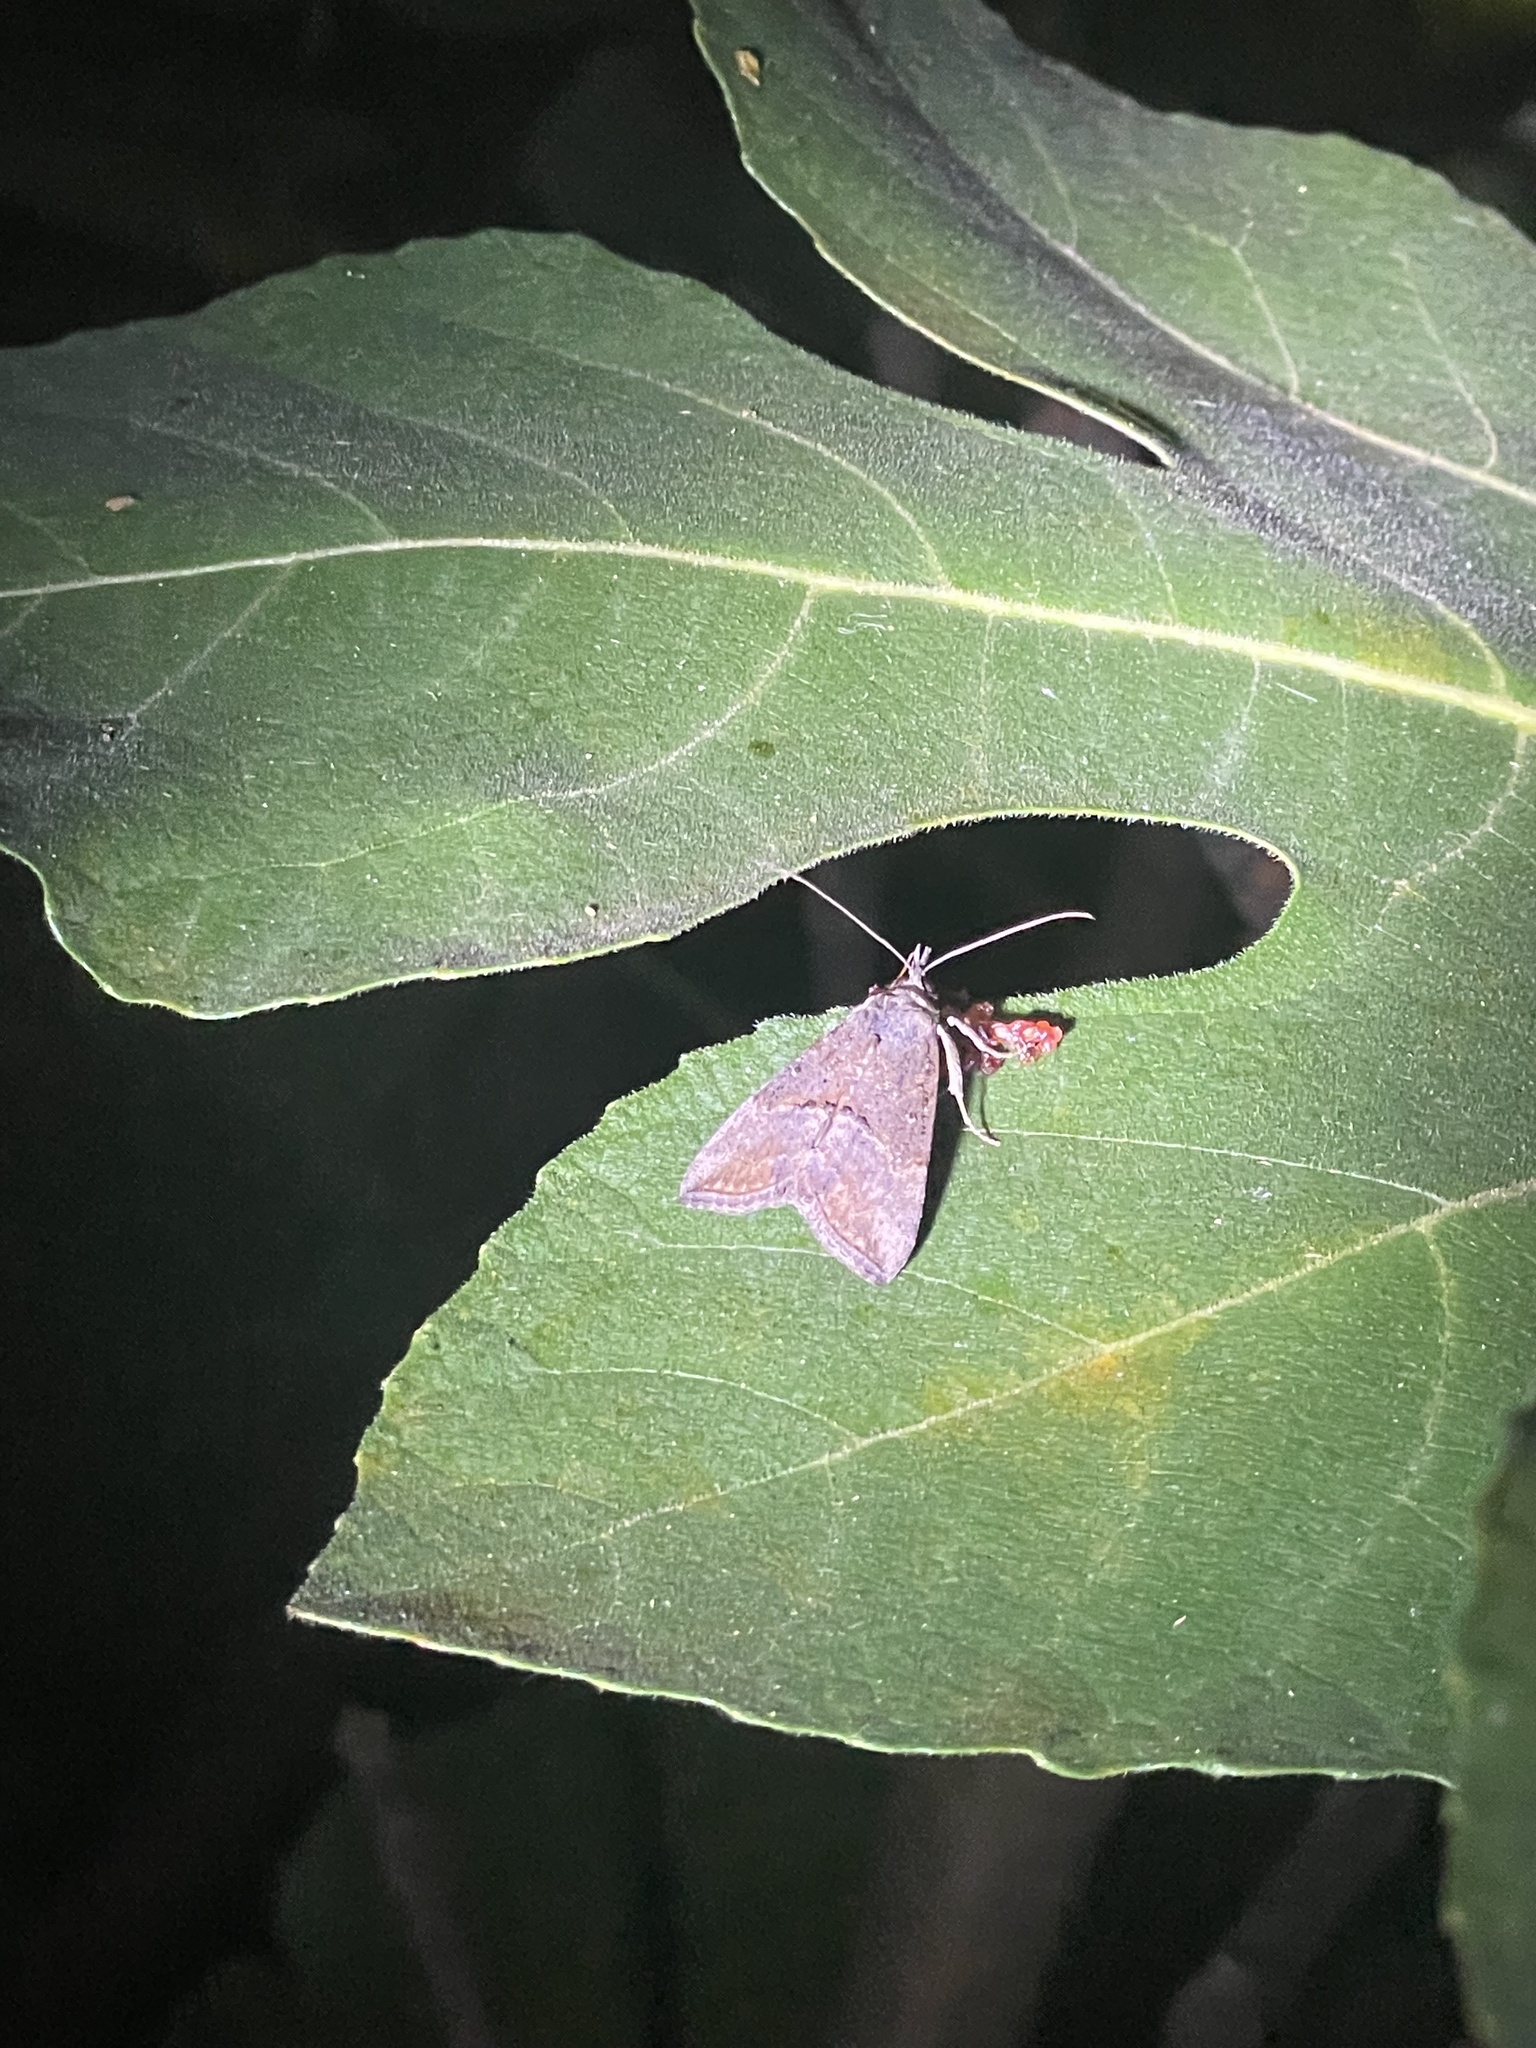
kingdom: Animalia
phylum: Arthropoda
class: Insecta
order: Lepidoptera
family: Erebidae
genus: Hypena
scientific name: Hypena scabra
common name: Green cloverworm
